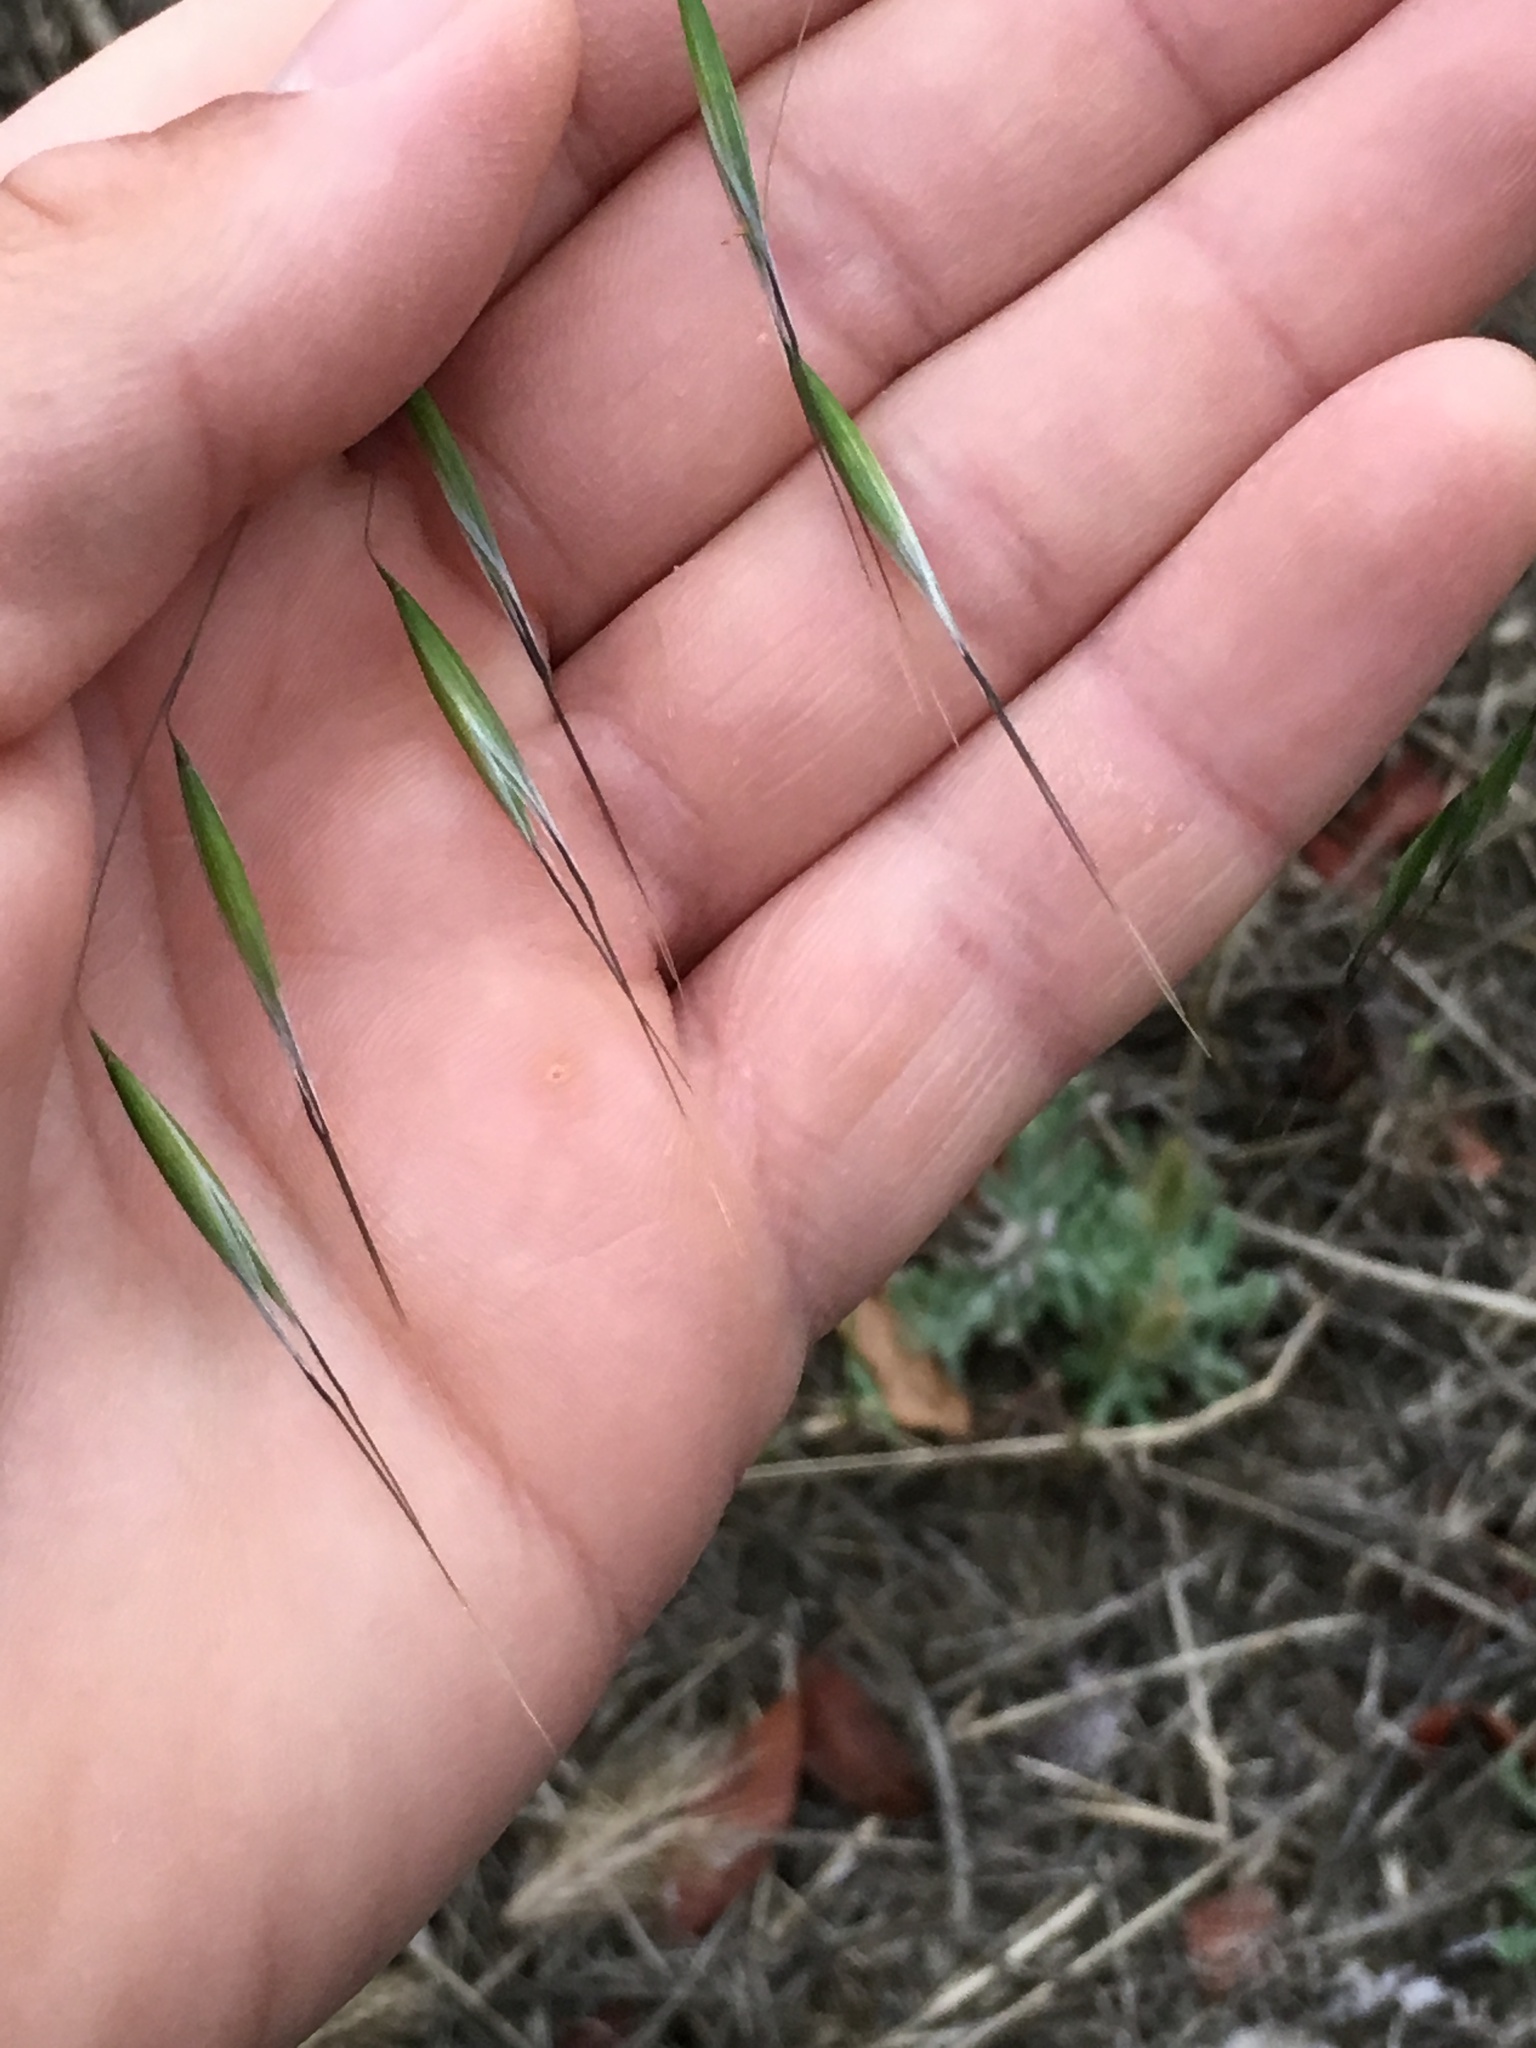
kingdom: Plantae
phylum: Tracheophyta
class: Liliopsida
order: Poales
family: Poaceae
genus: Avena
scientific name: Avena barbata
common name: Slender oat
